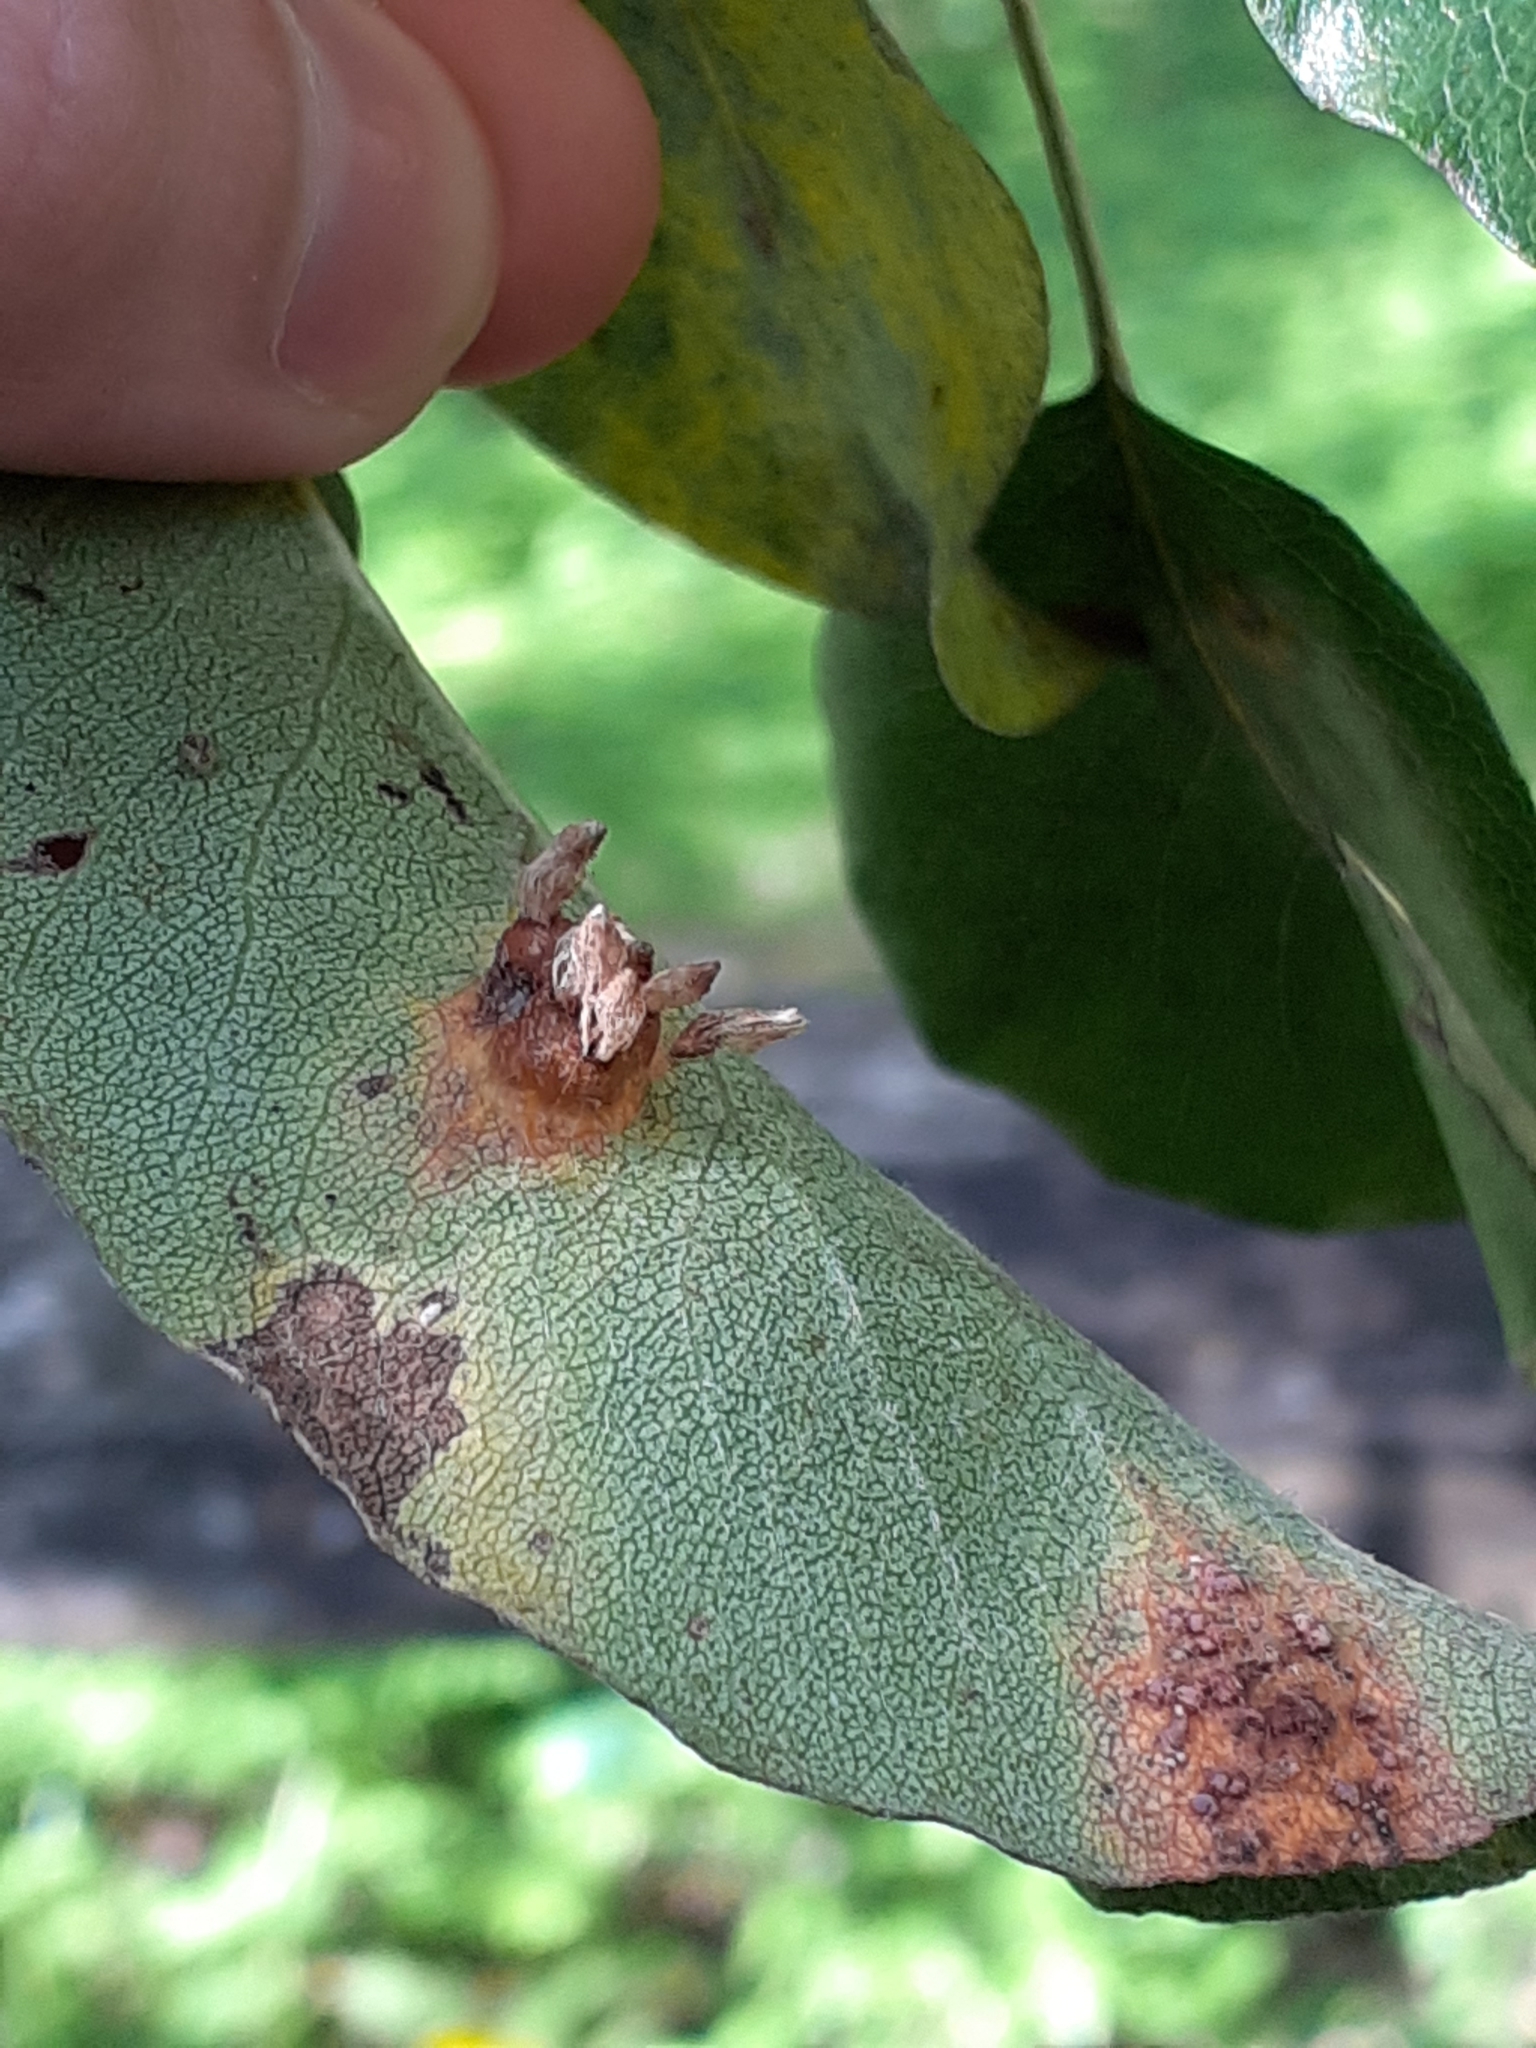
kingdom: Fungi
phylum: Basidiomycota
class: Pucciniomycetes
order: Pucciniales
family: Gymnosporangiaceae
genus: Gymnosporangium
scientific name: Gymnosporangium sabinae
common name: Pear trellis rust fungus
